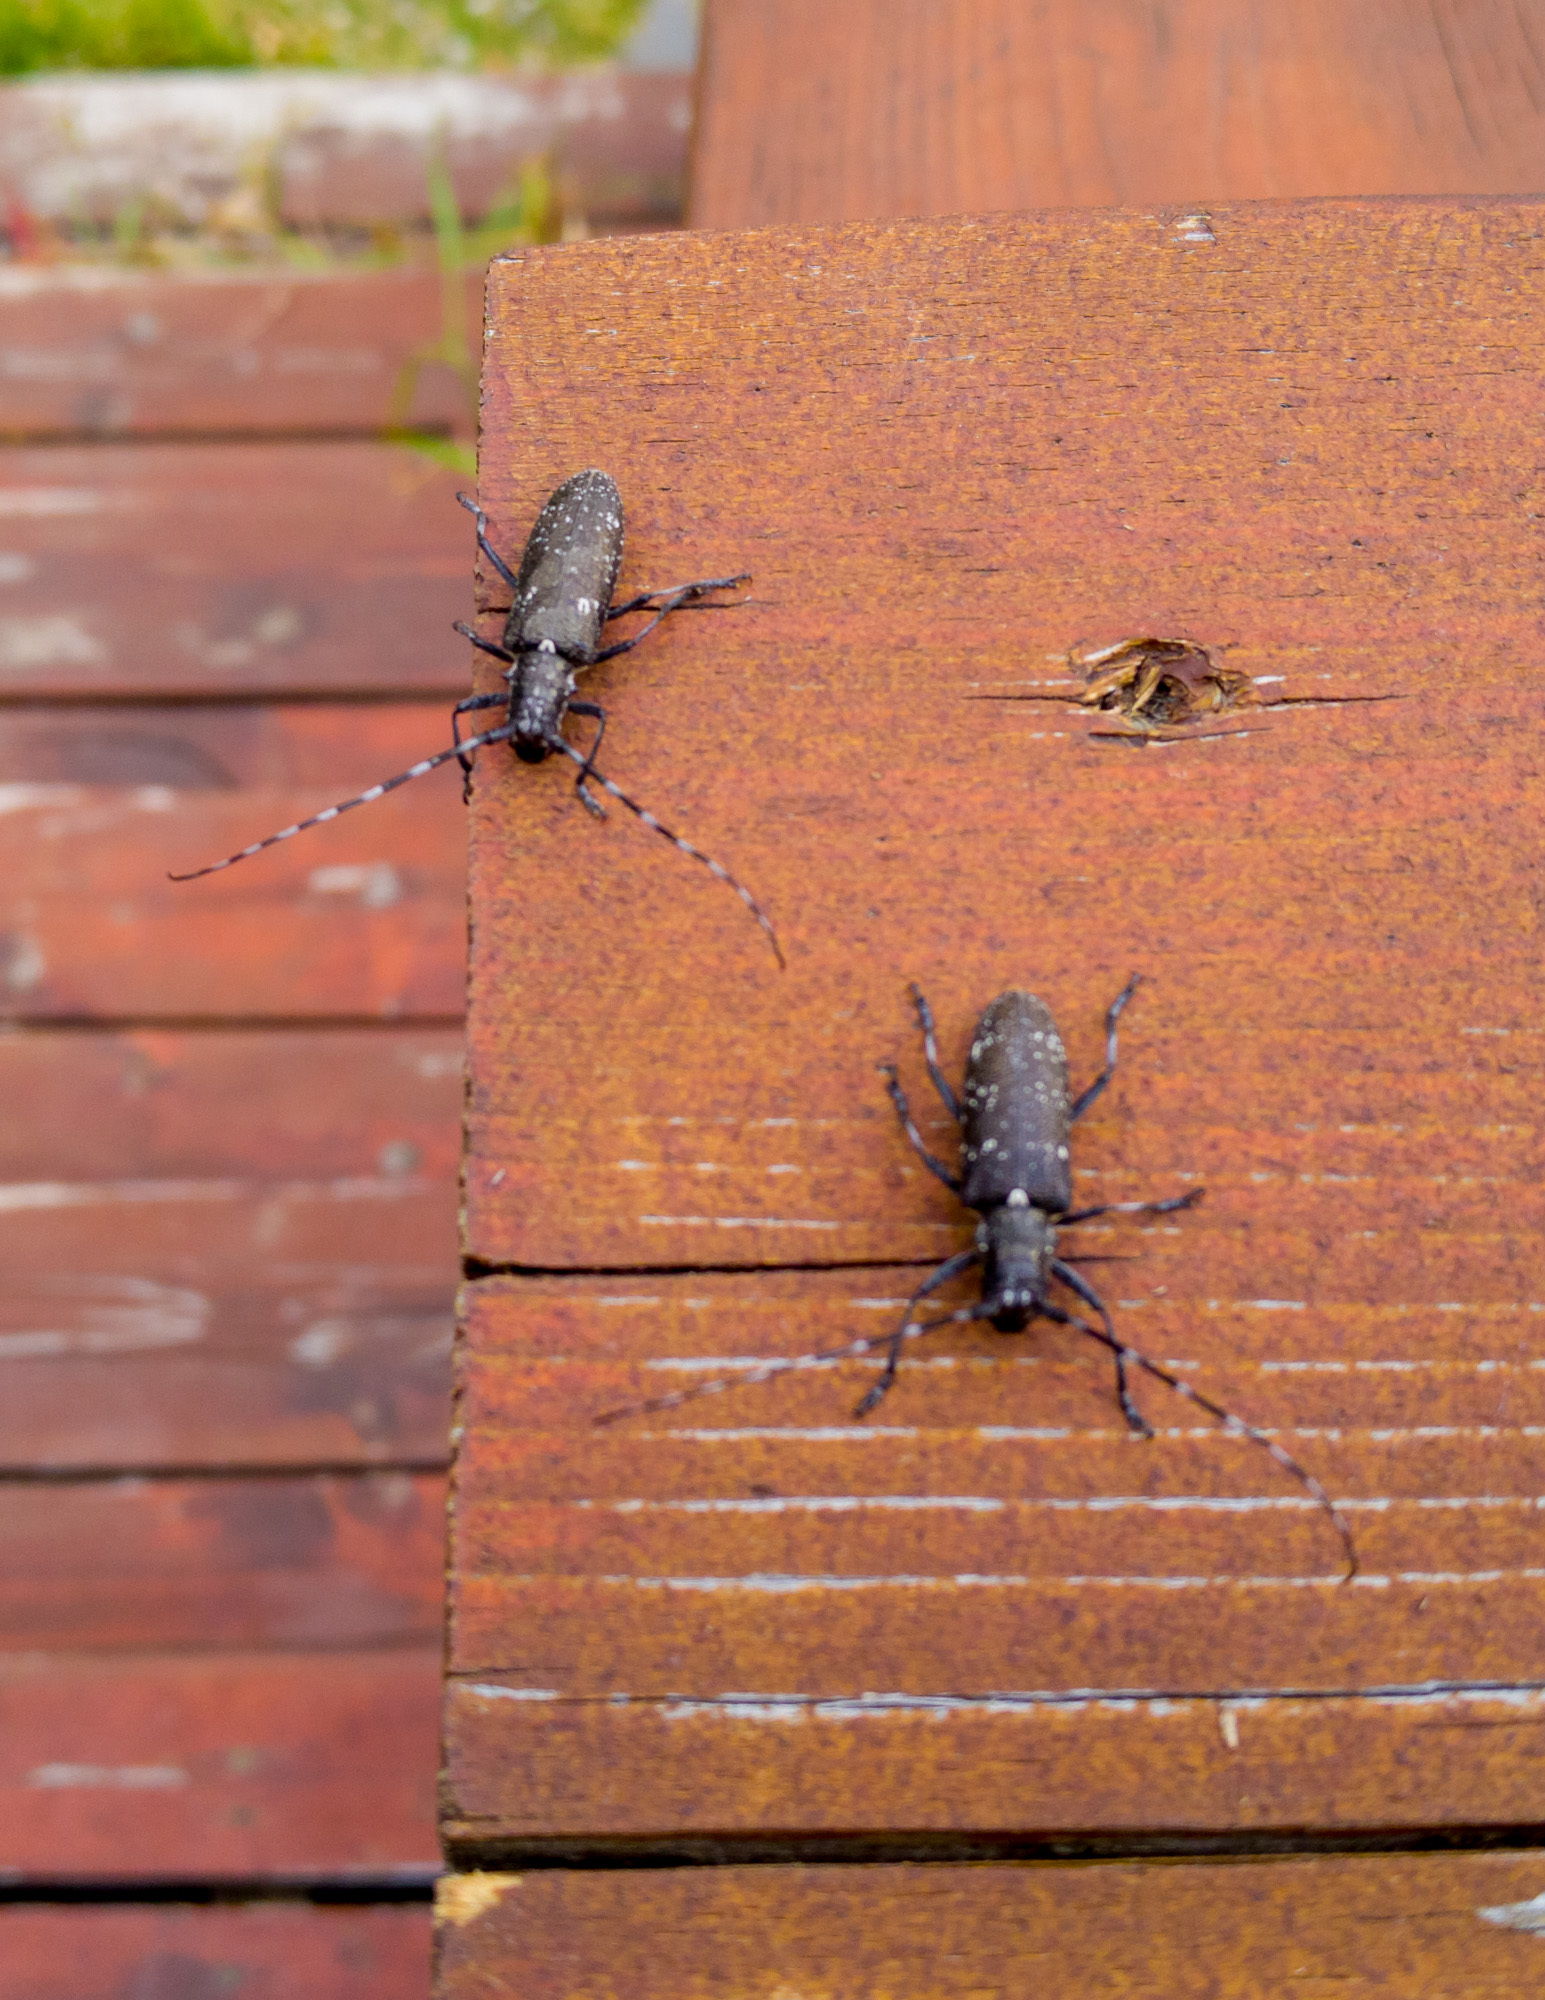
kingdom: Animalia
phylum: Arthropoda
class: Insecta
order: Coleoptera
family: Cerambycidae
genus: Monochamus
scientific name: Monochamus scutellatus
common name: White-spotted sawyer beetle
